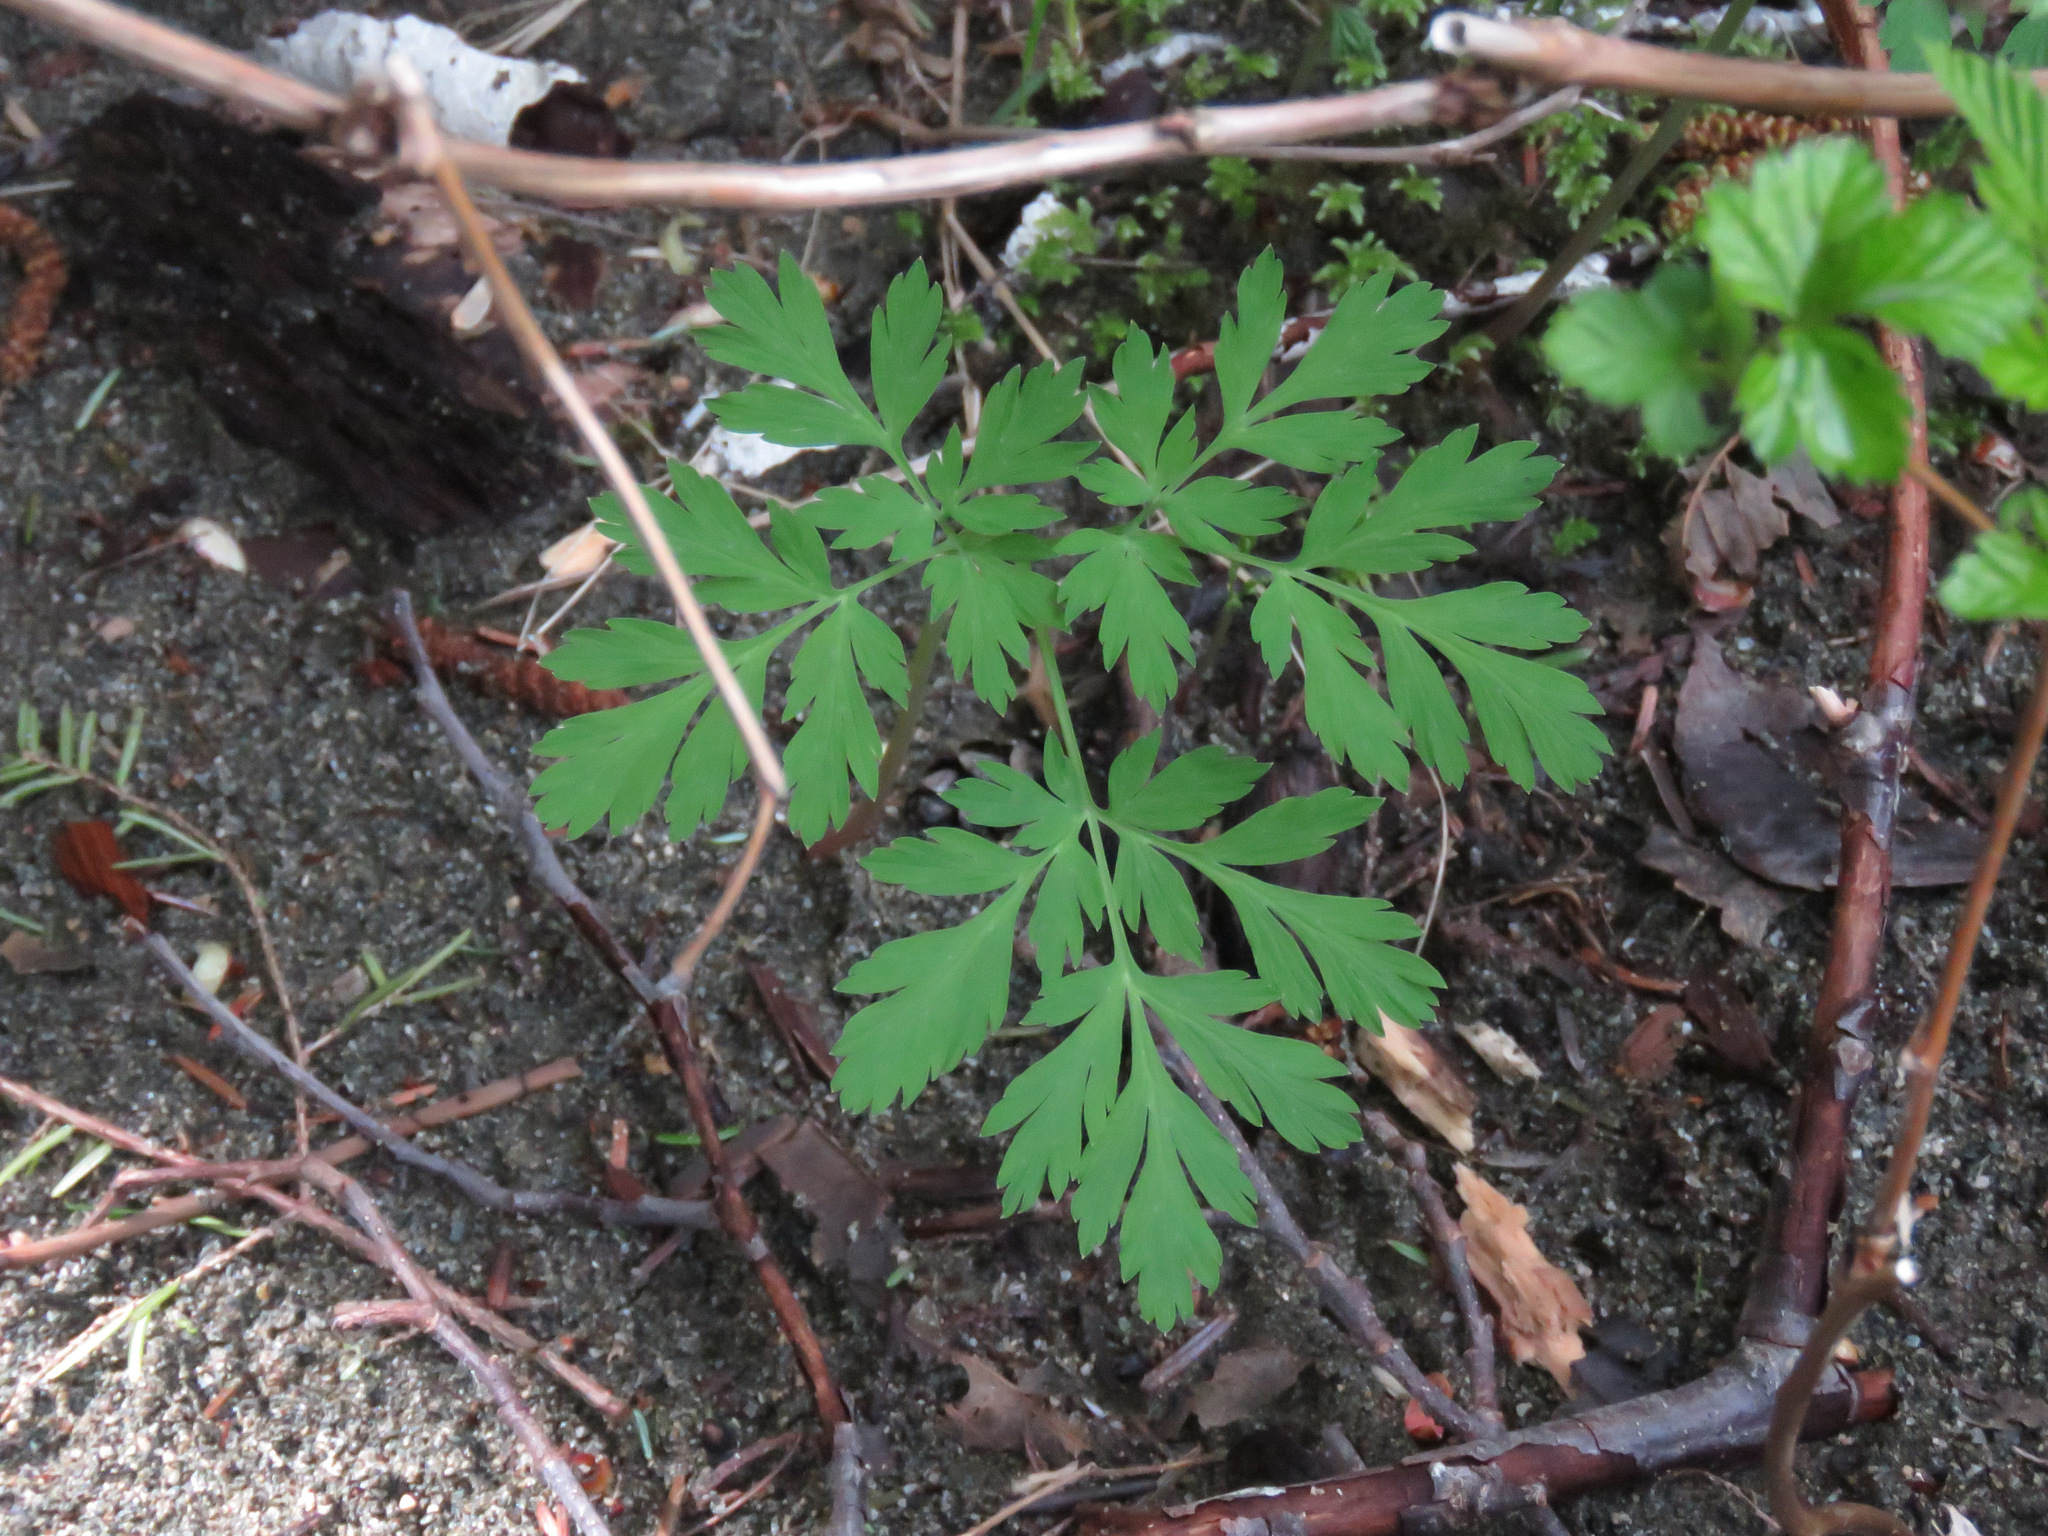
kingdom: Plantae
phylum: Tracheophyta
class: Magnoliopsida
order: Ranunculales
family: Papaveraceae
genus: Dicentra
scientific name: Dicentra formosa
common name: Bleeding-heart
